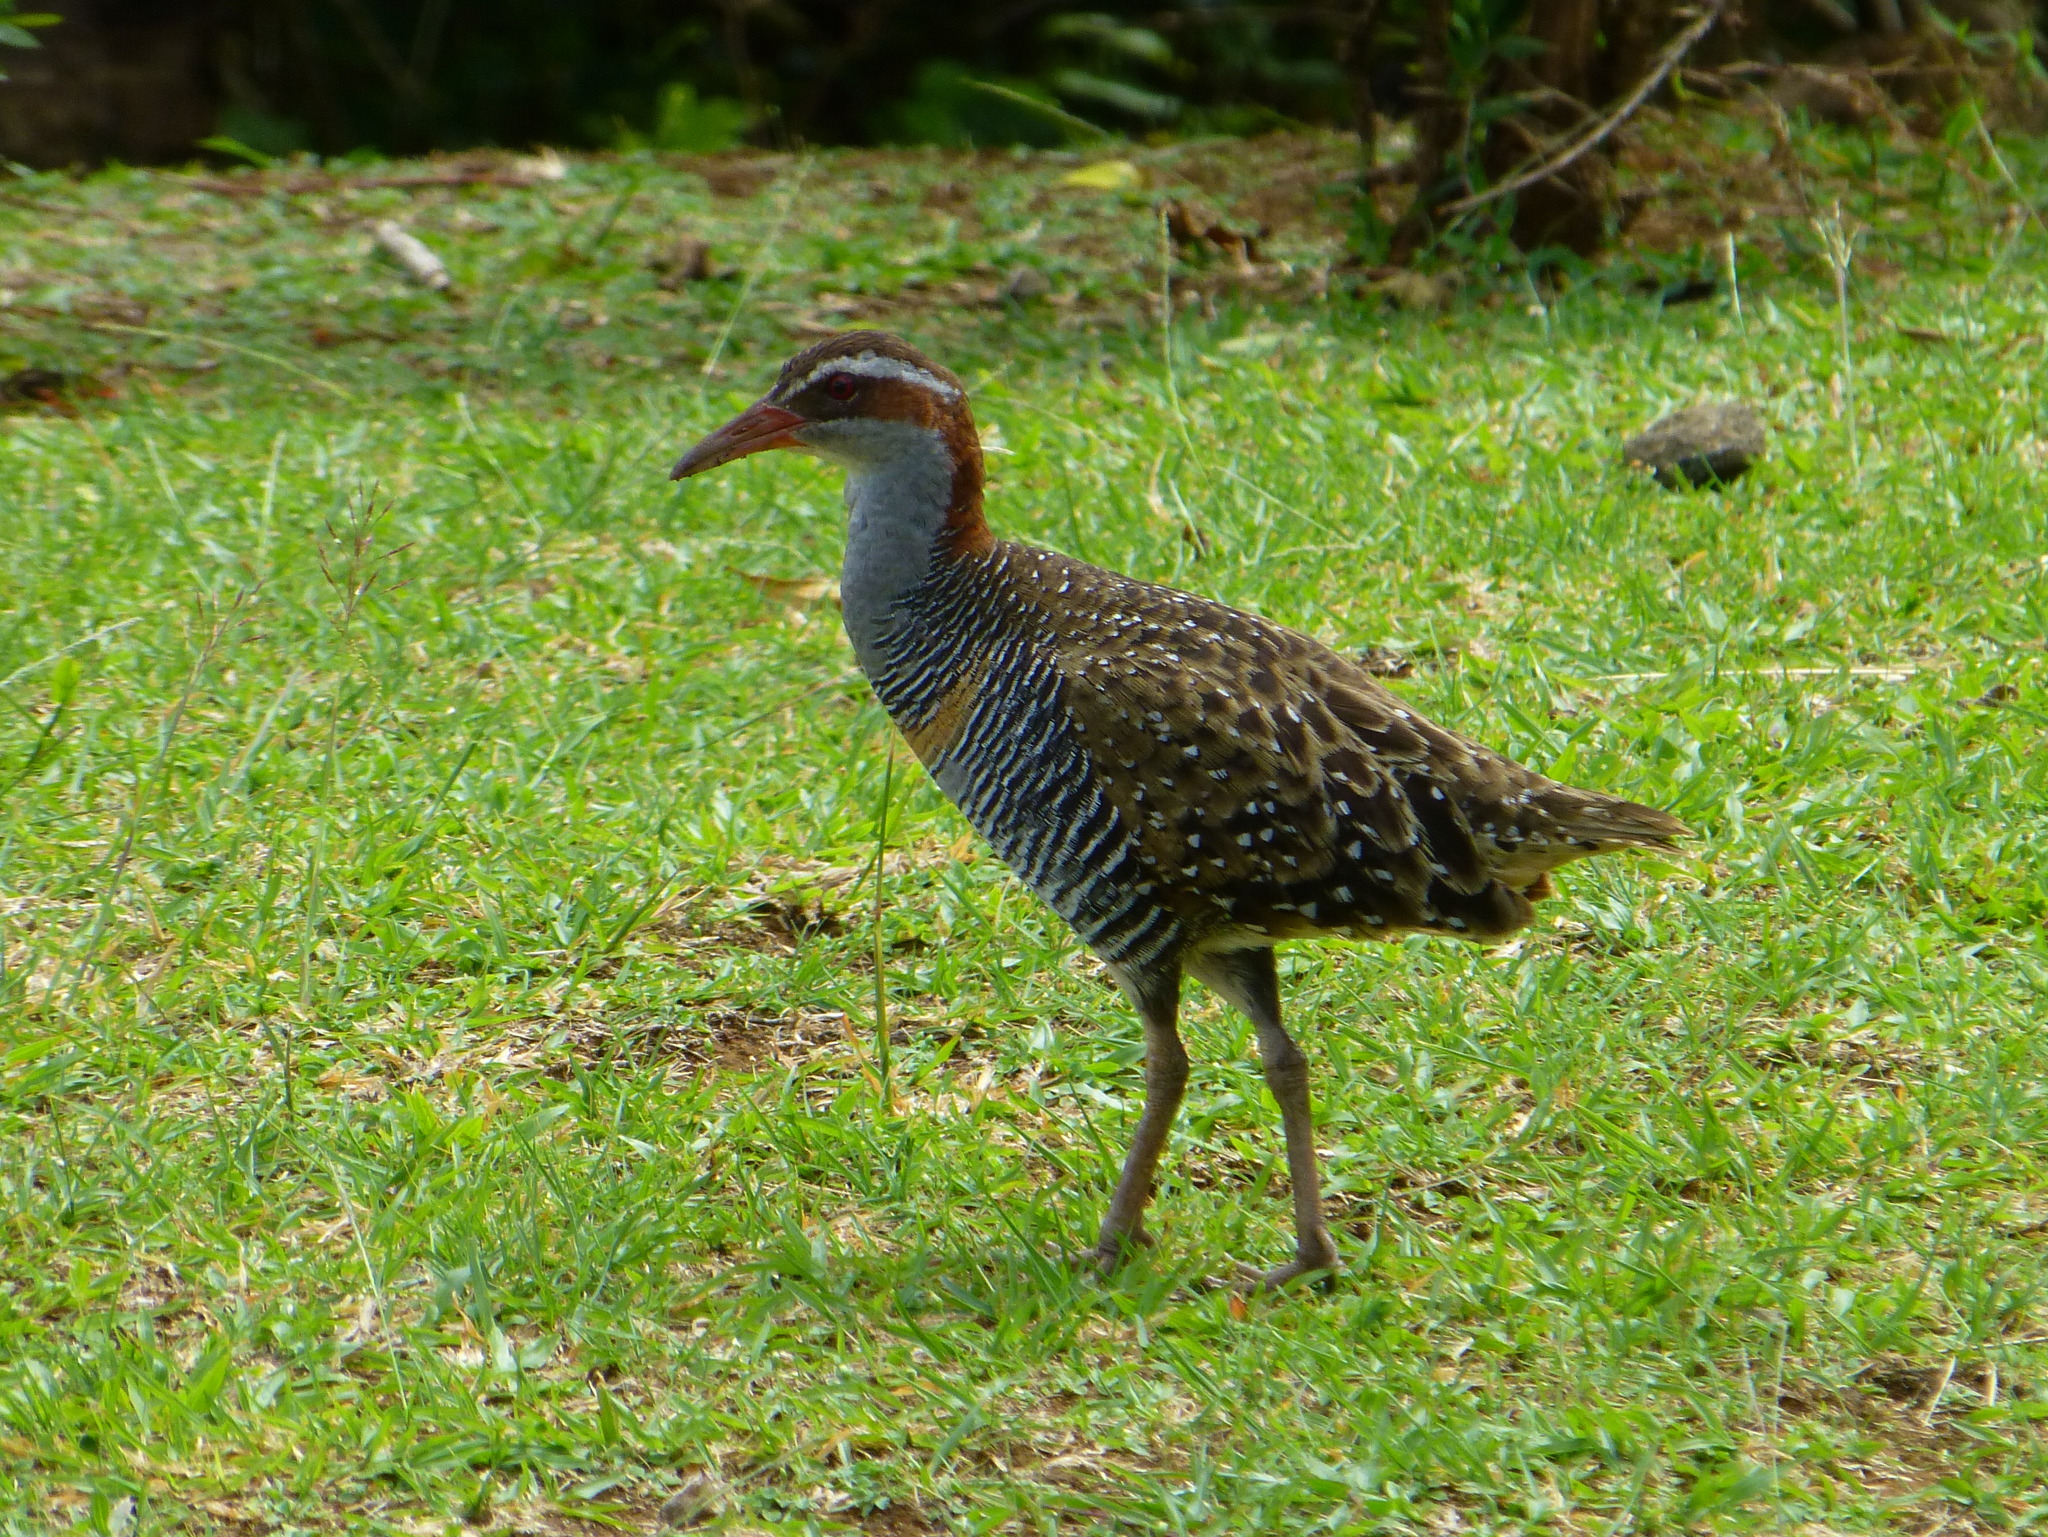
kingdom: Animalia
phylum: Chordata
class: Aves
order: Gruiformes
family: Rallidae
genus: Gallirallus
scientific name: Gallirallus philippensis
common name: Buff-banded rail
